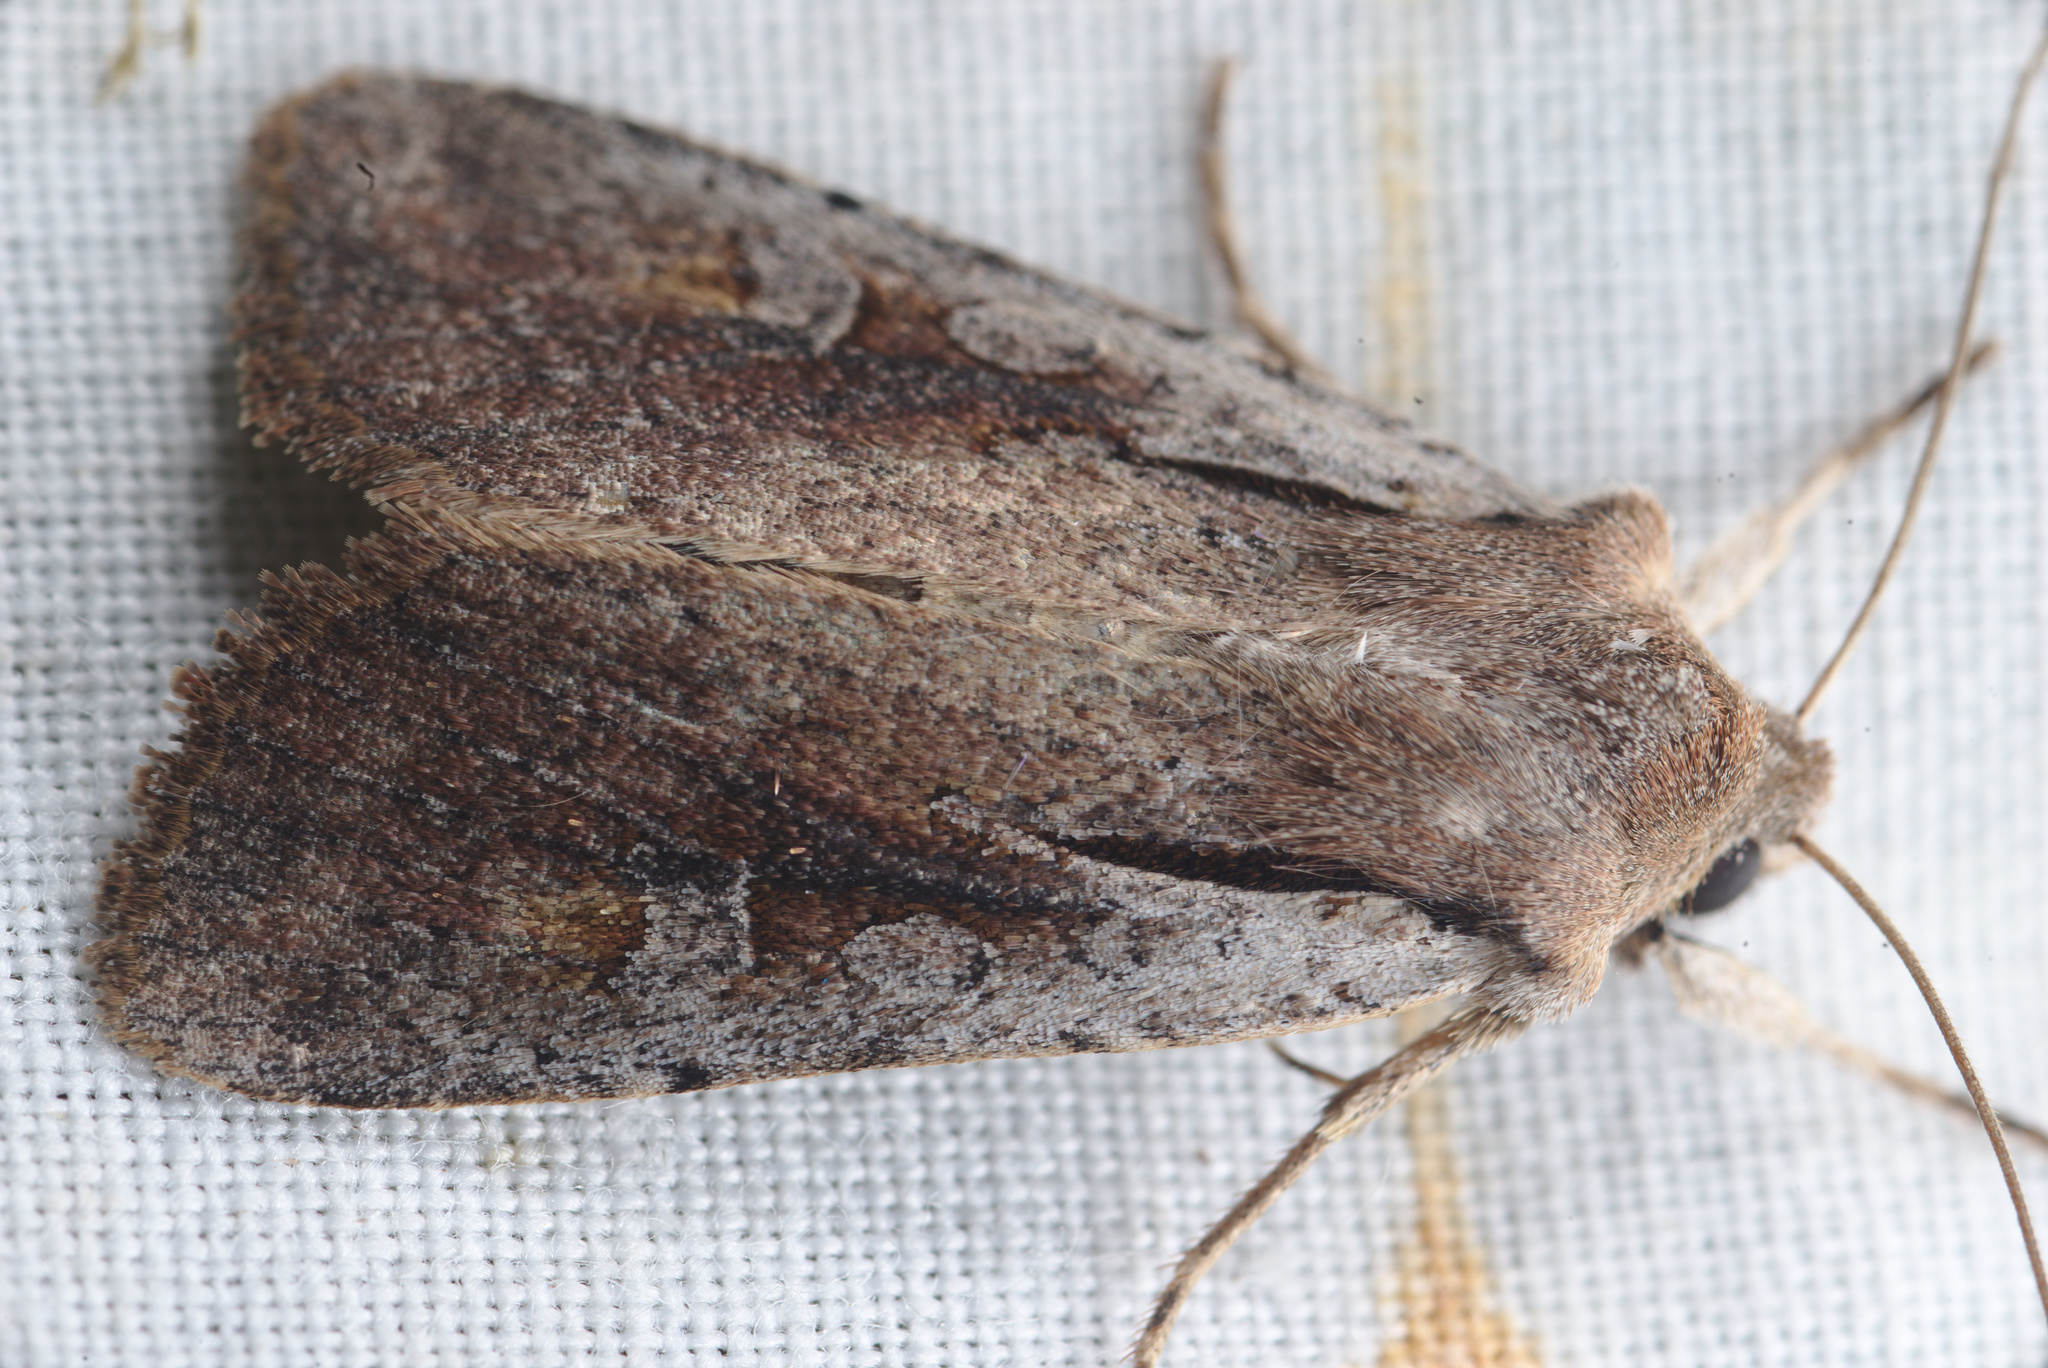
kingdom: Animalia
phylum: Arthropoda
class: Insecta
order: Lepidoptera
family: Noctuidae
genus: Ichneutica
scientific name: Ichneutica atristriga
